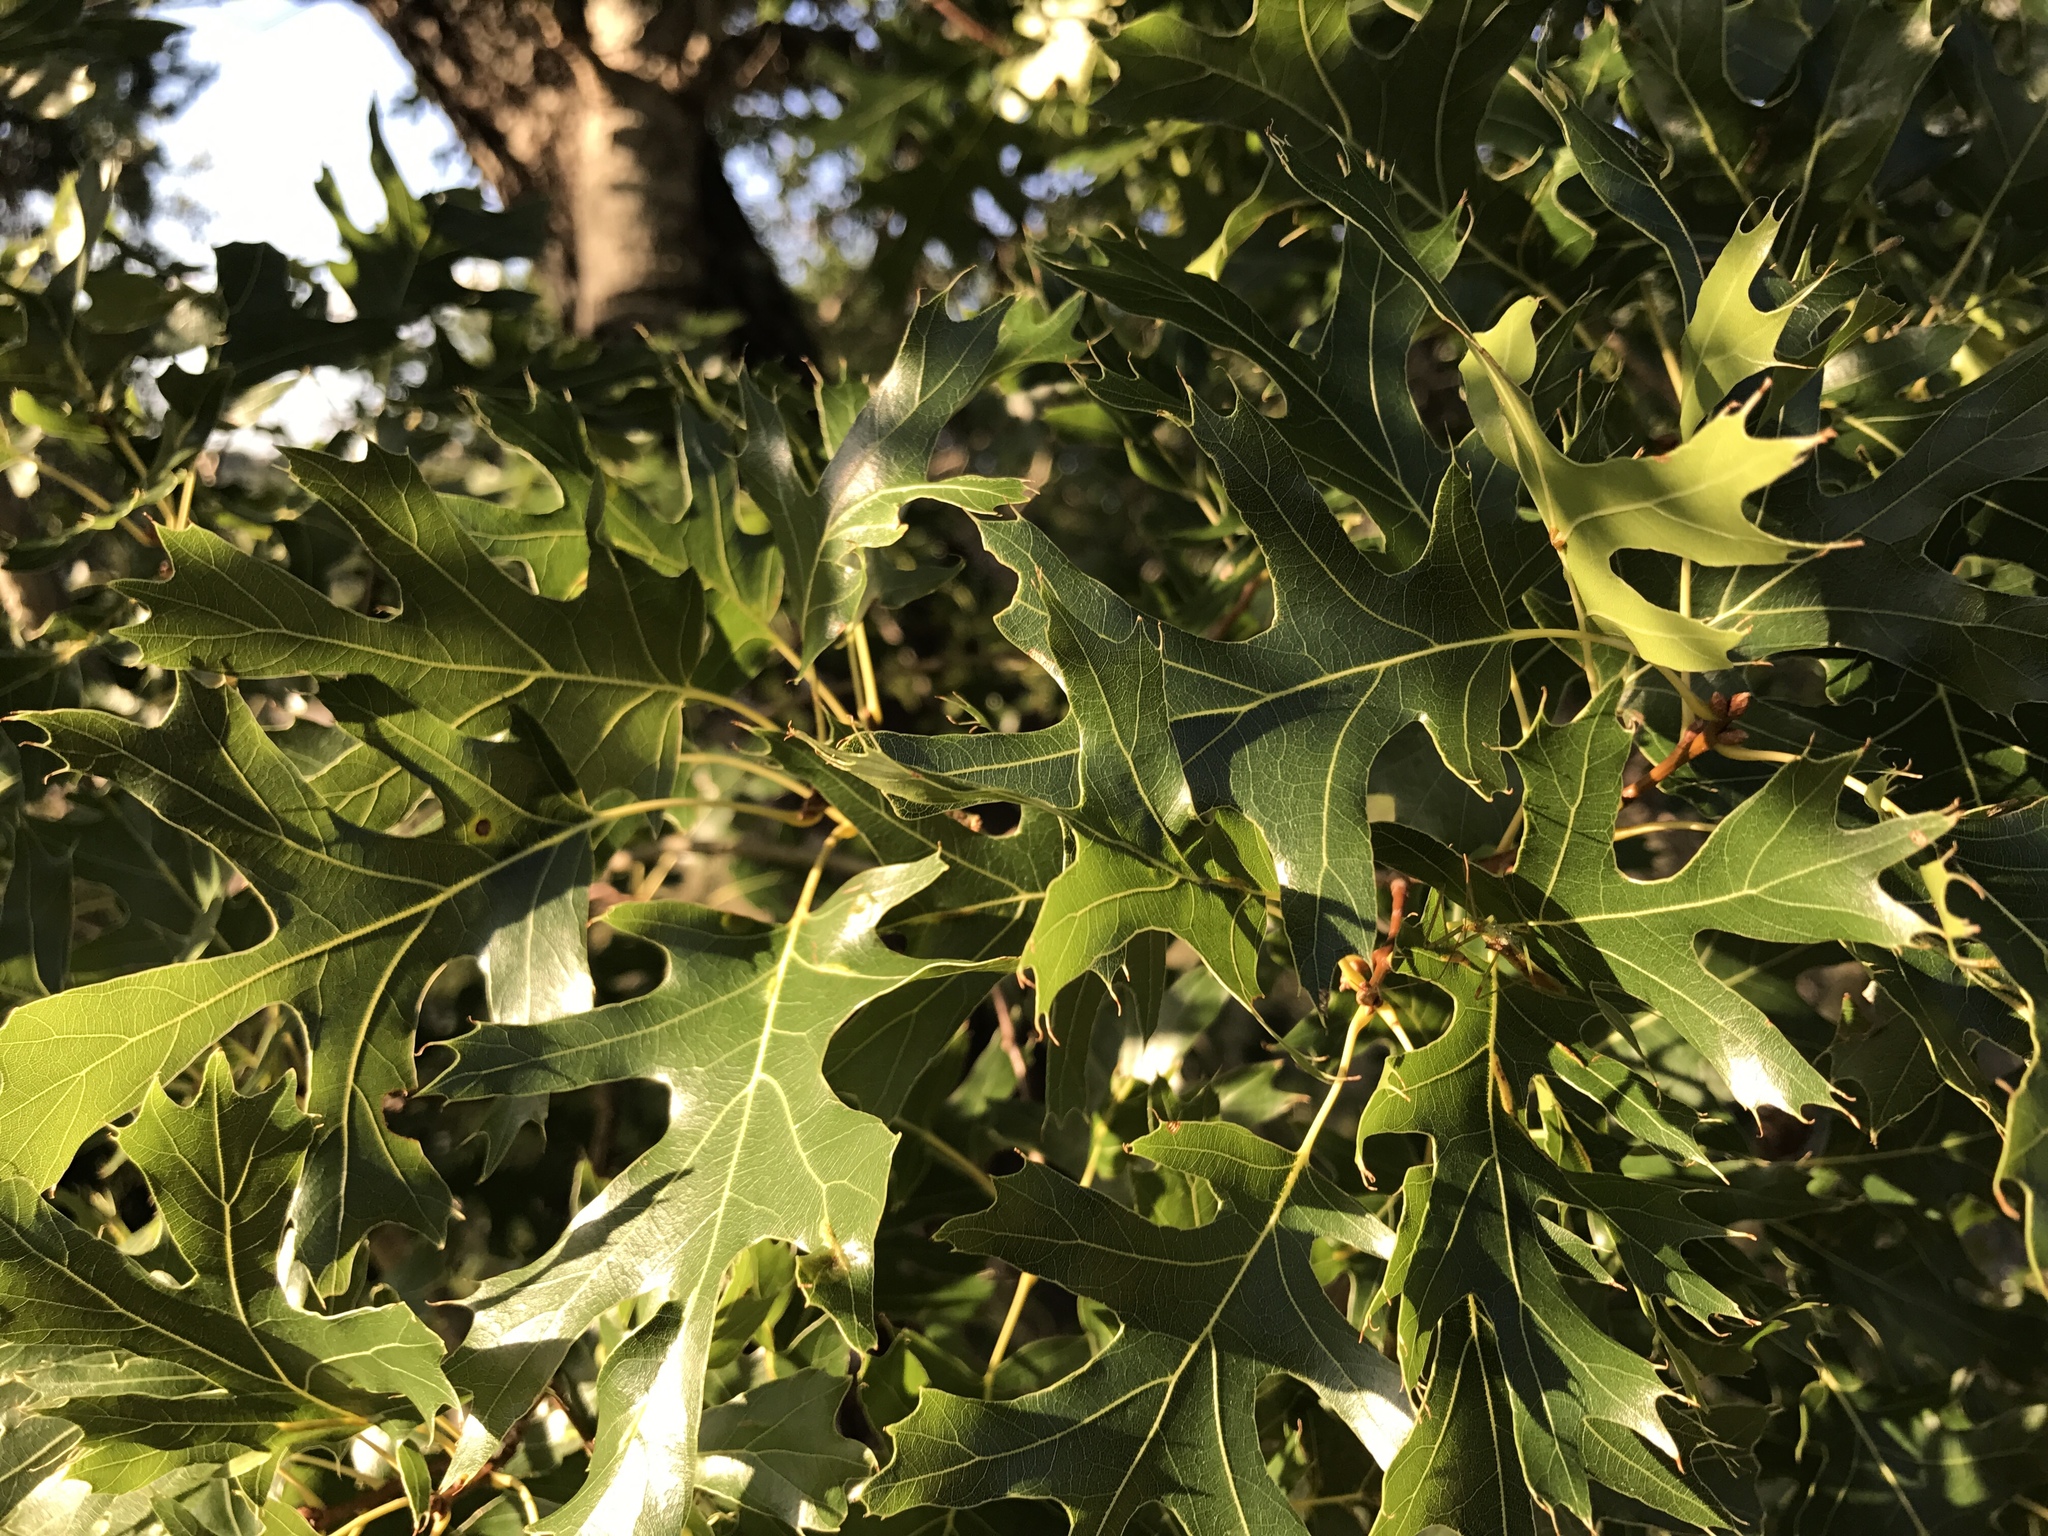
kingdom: Plantae
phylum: Tracheophyta
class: Magnoliopsida
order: Fagales
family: Fagaceae
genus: Quercus
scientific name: Quercus buckleyi
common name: Buckley oak
